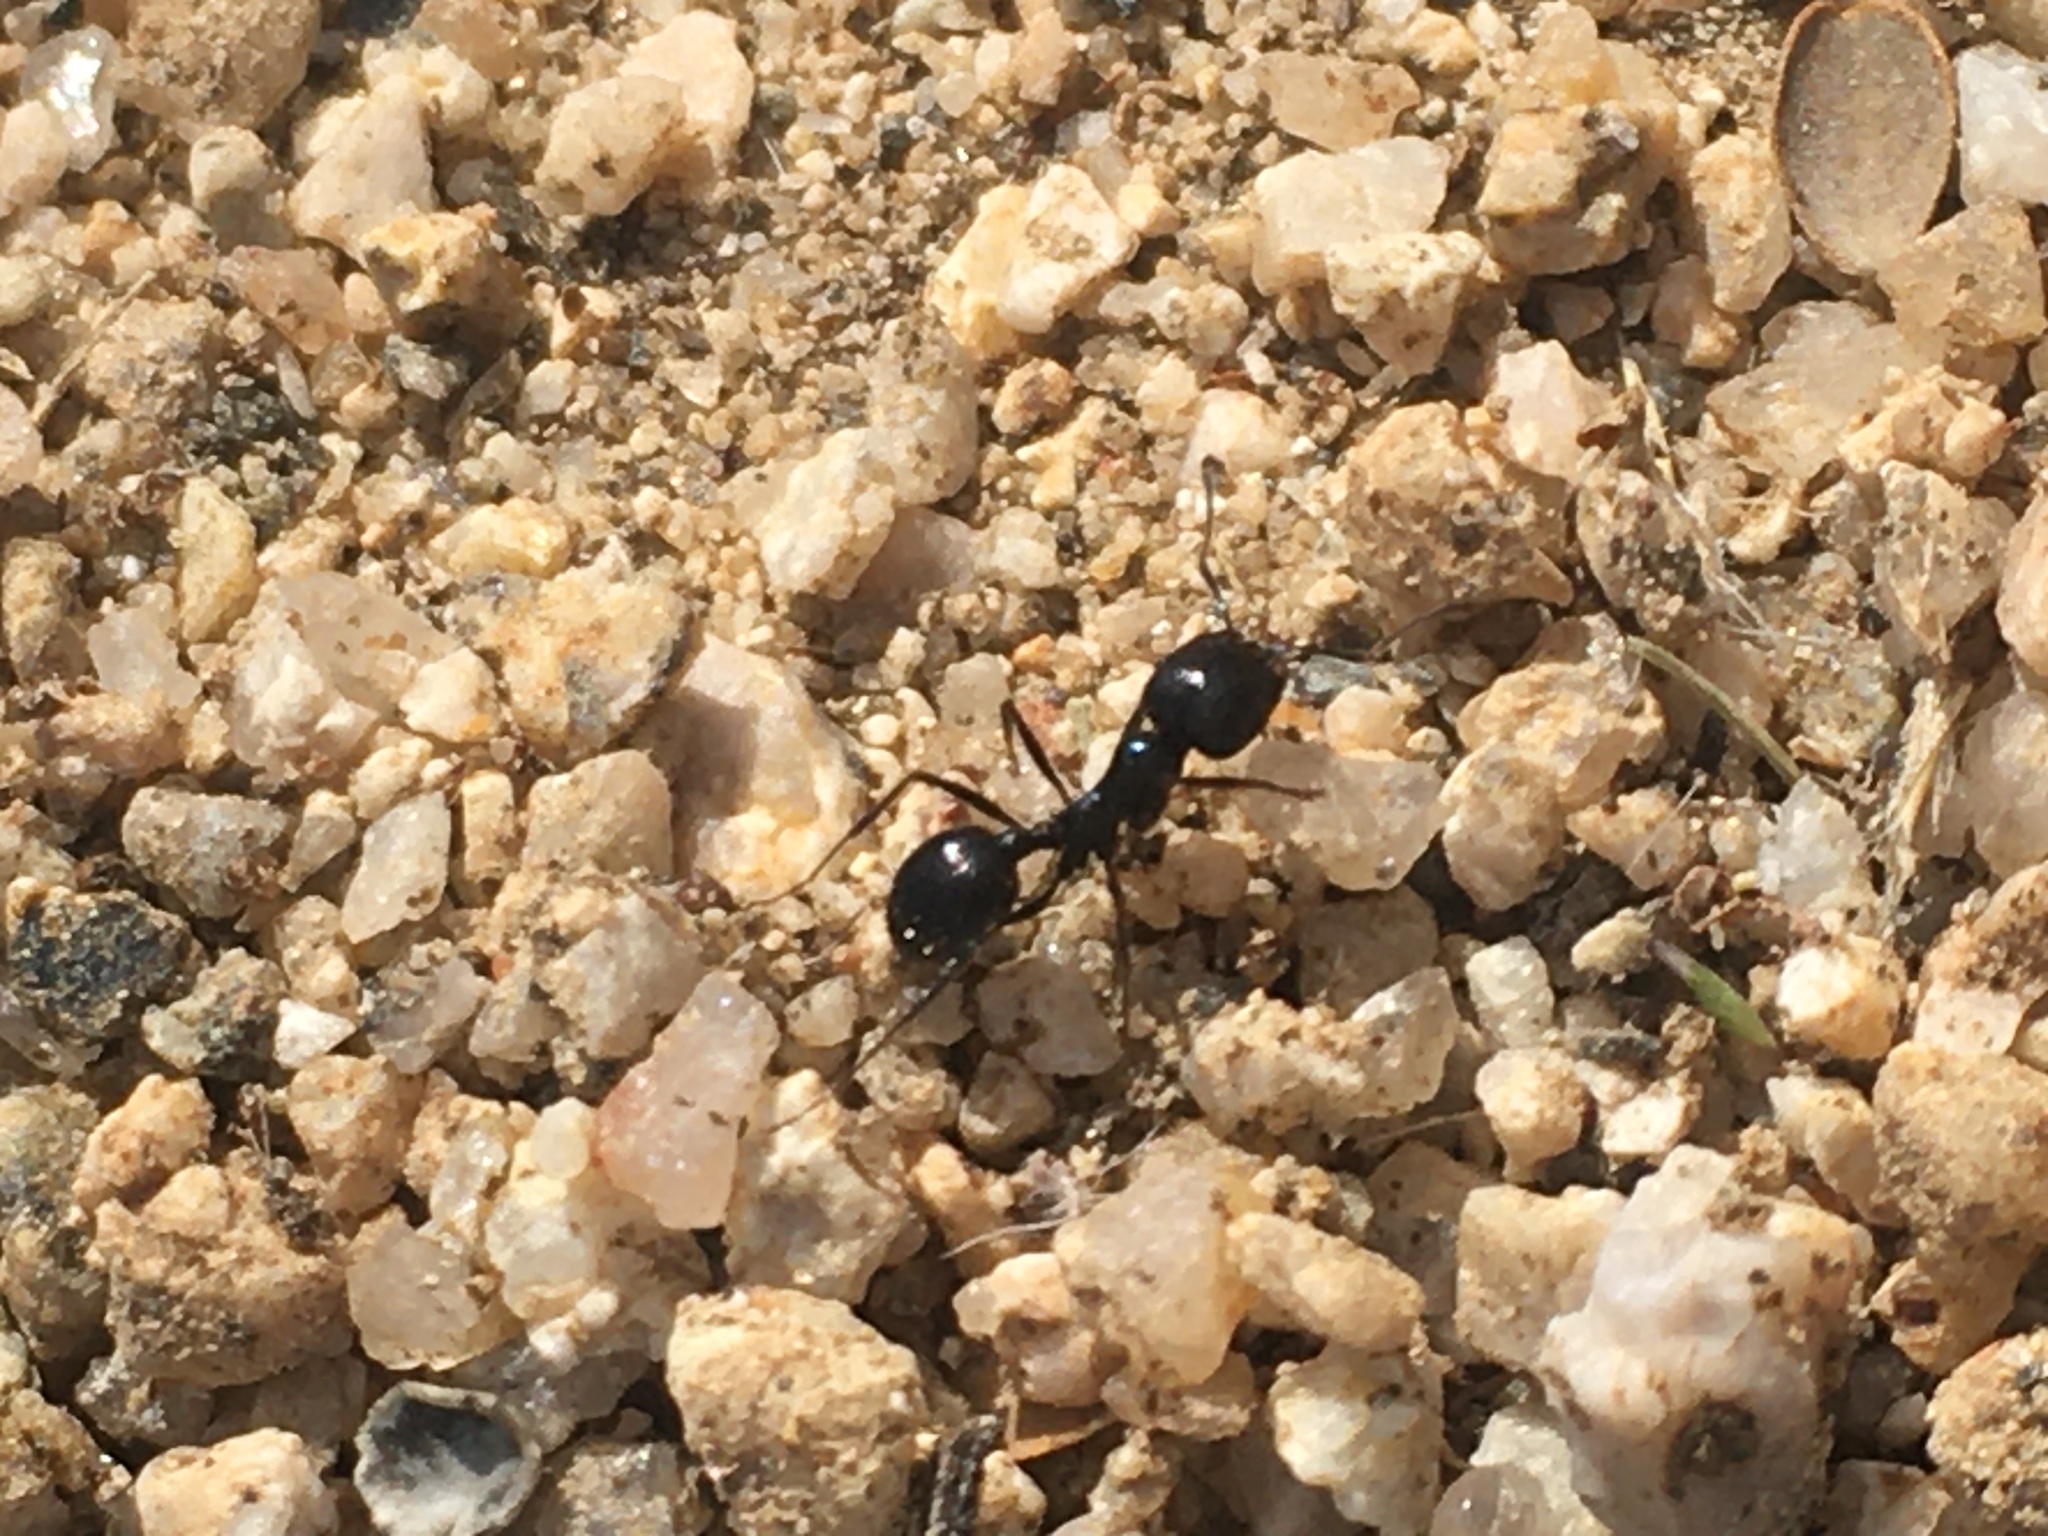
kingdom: Animalia
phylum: Arthropoda
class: Insecta
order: Hymenoptera
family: Formicidae
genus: Messor
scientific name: Messor pergandei
